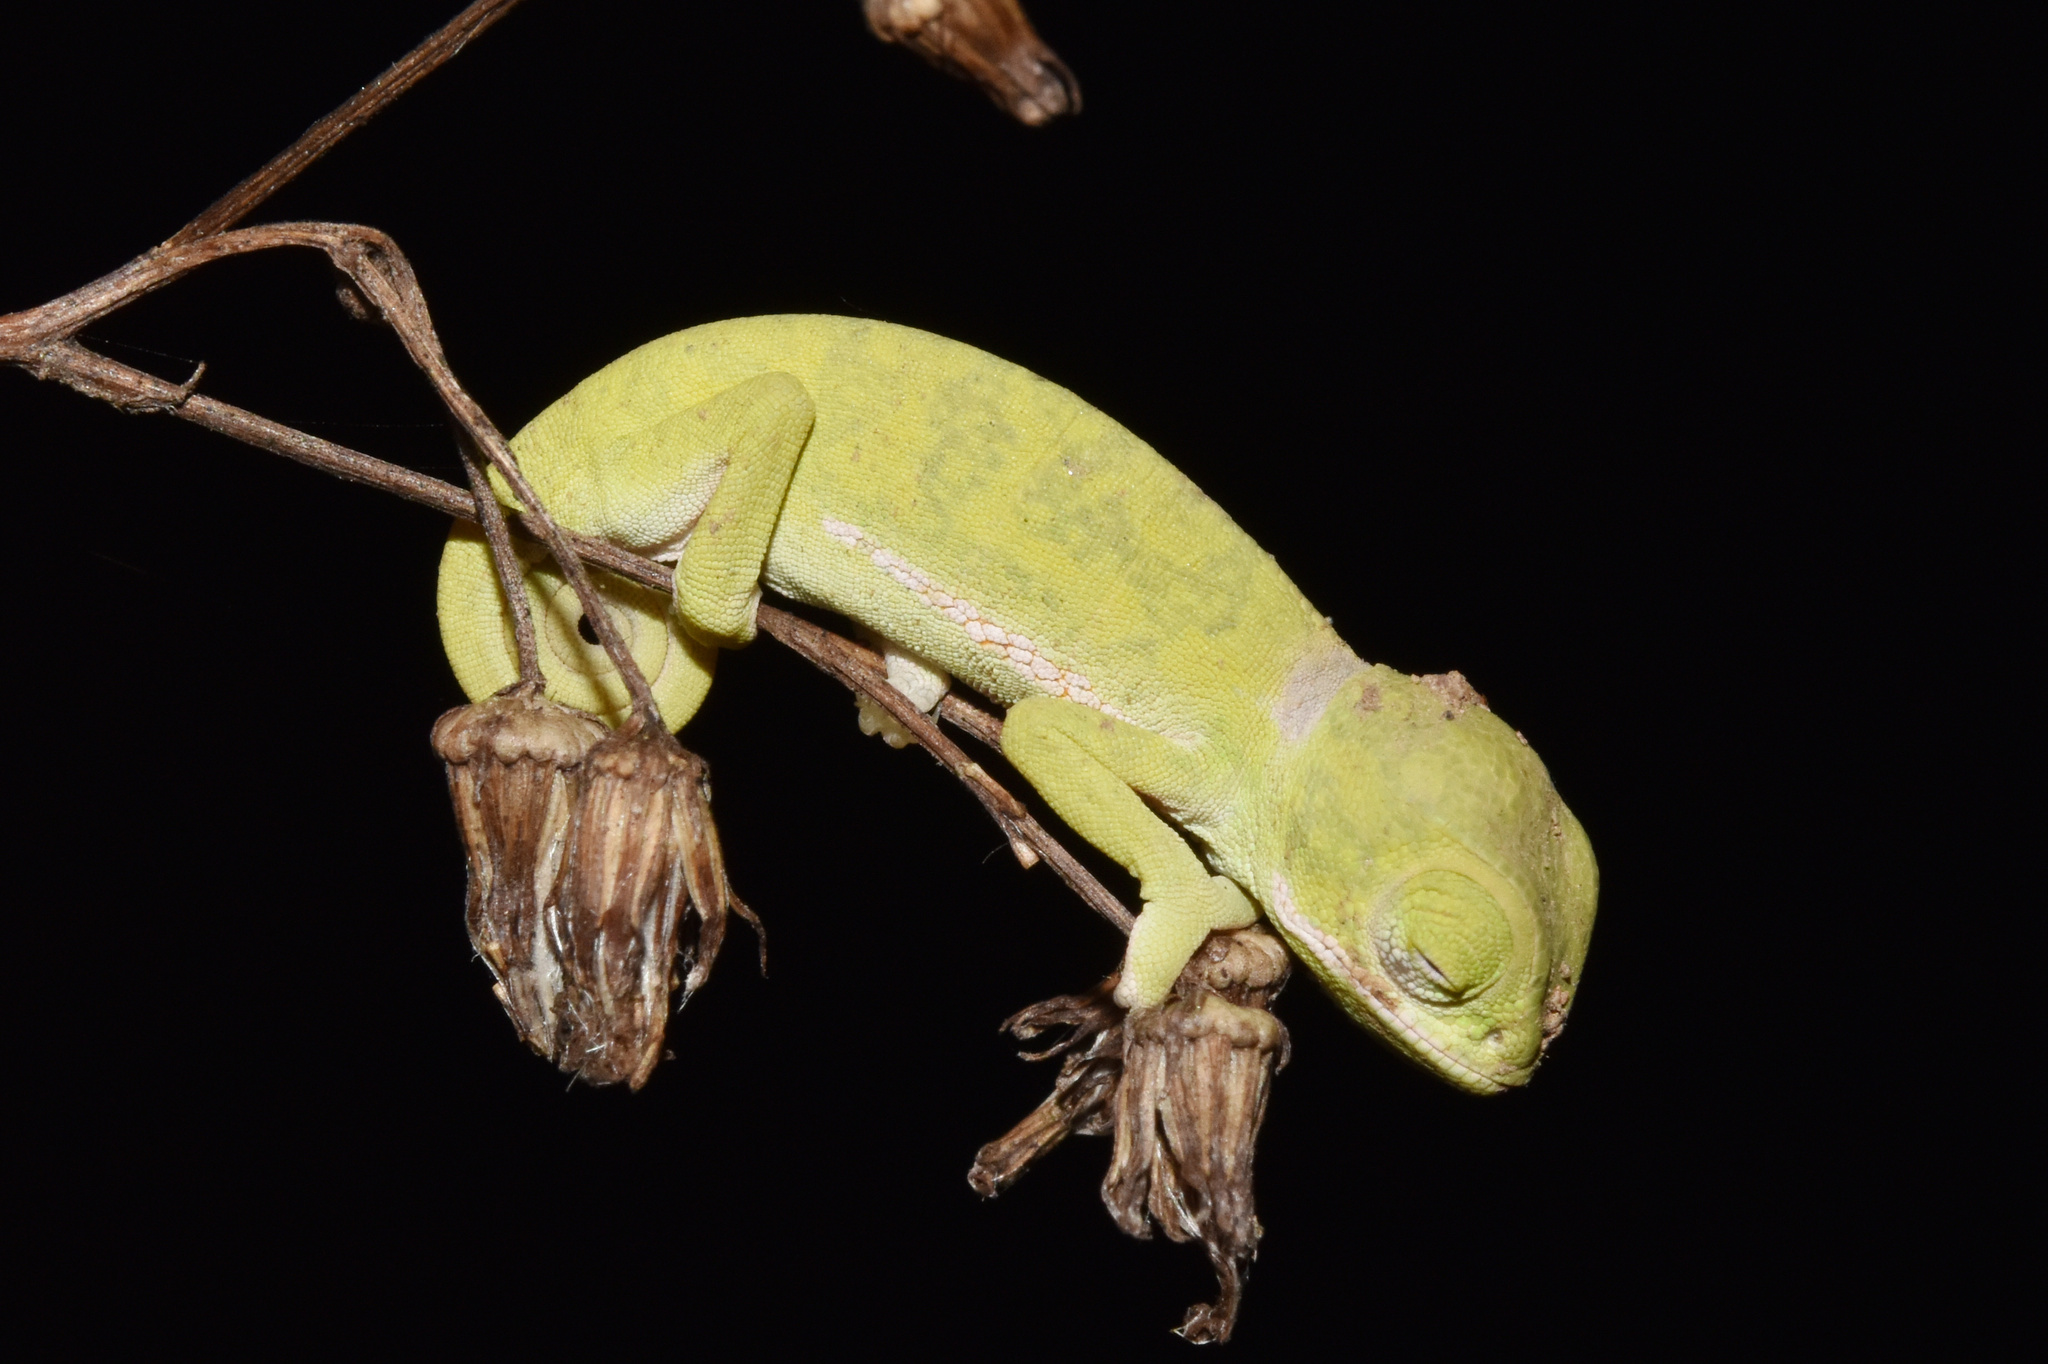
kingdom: Animalia
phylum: Chordata
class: Squamata
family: Chamaeleonidae
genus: Chamaeleo
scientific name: Chamaeleo dilepis
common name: Flapneck chameleon
